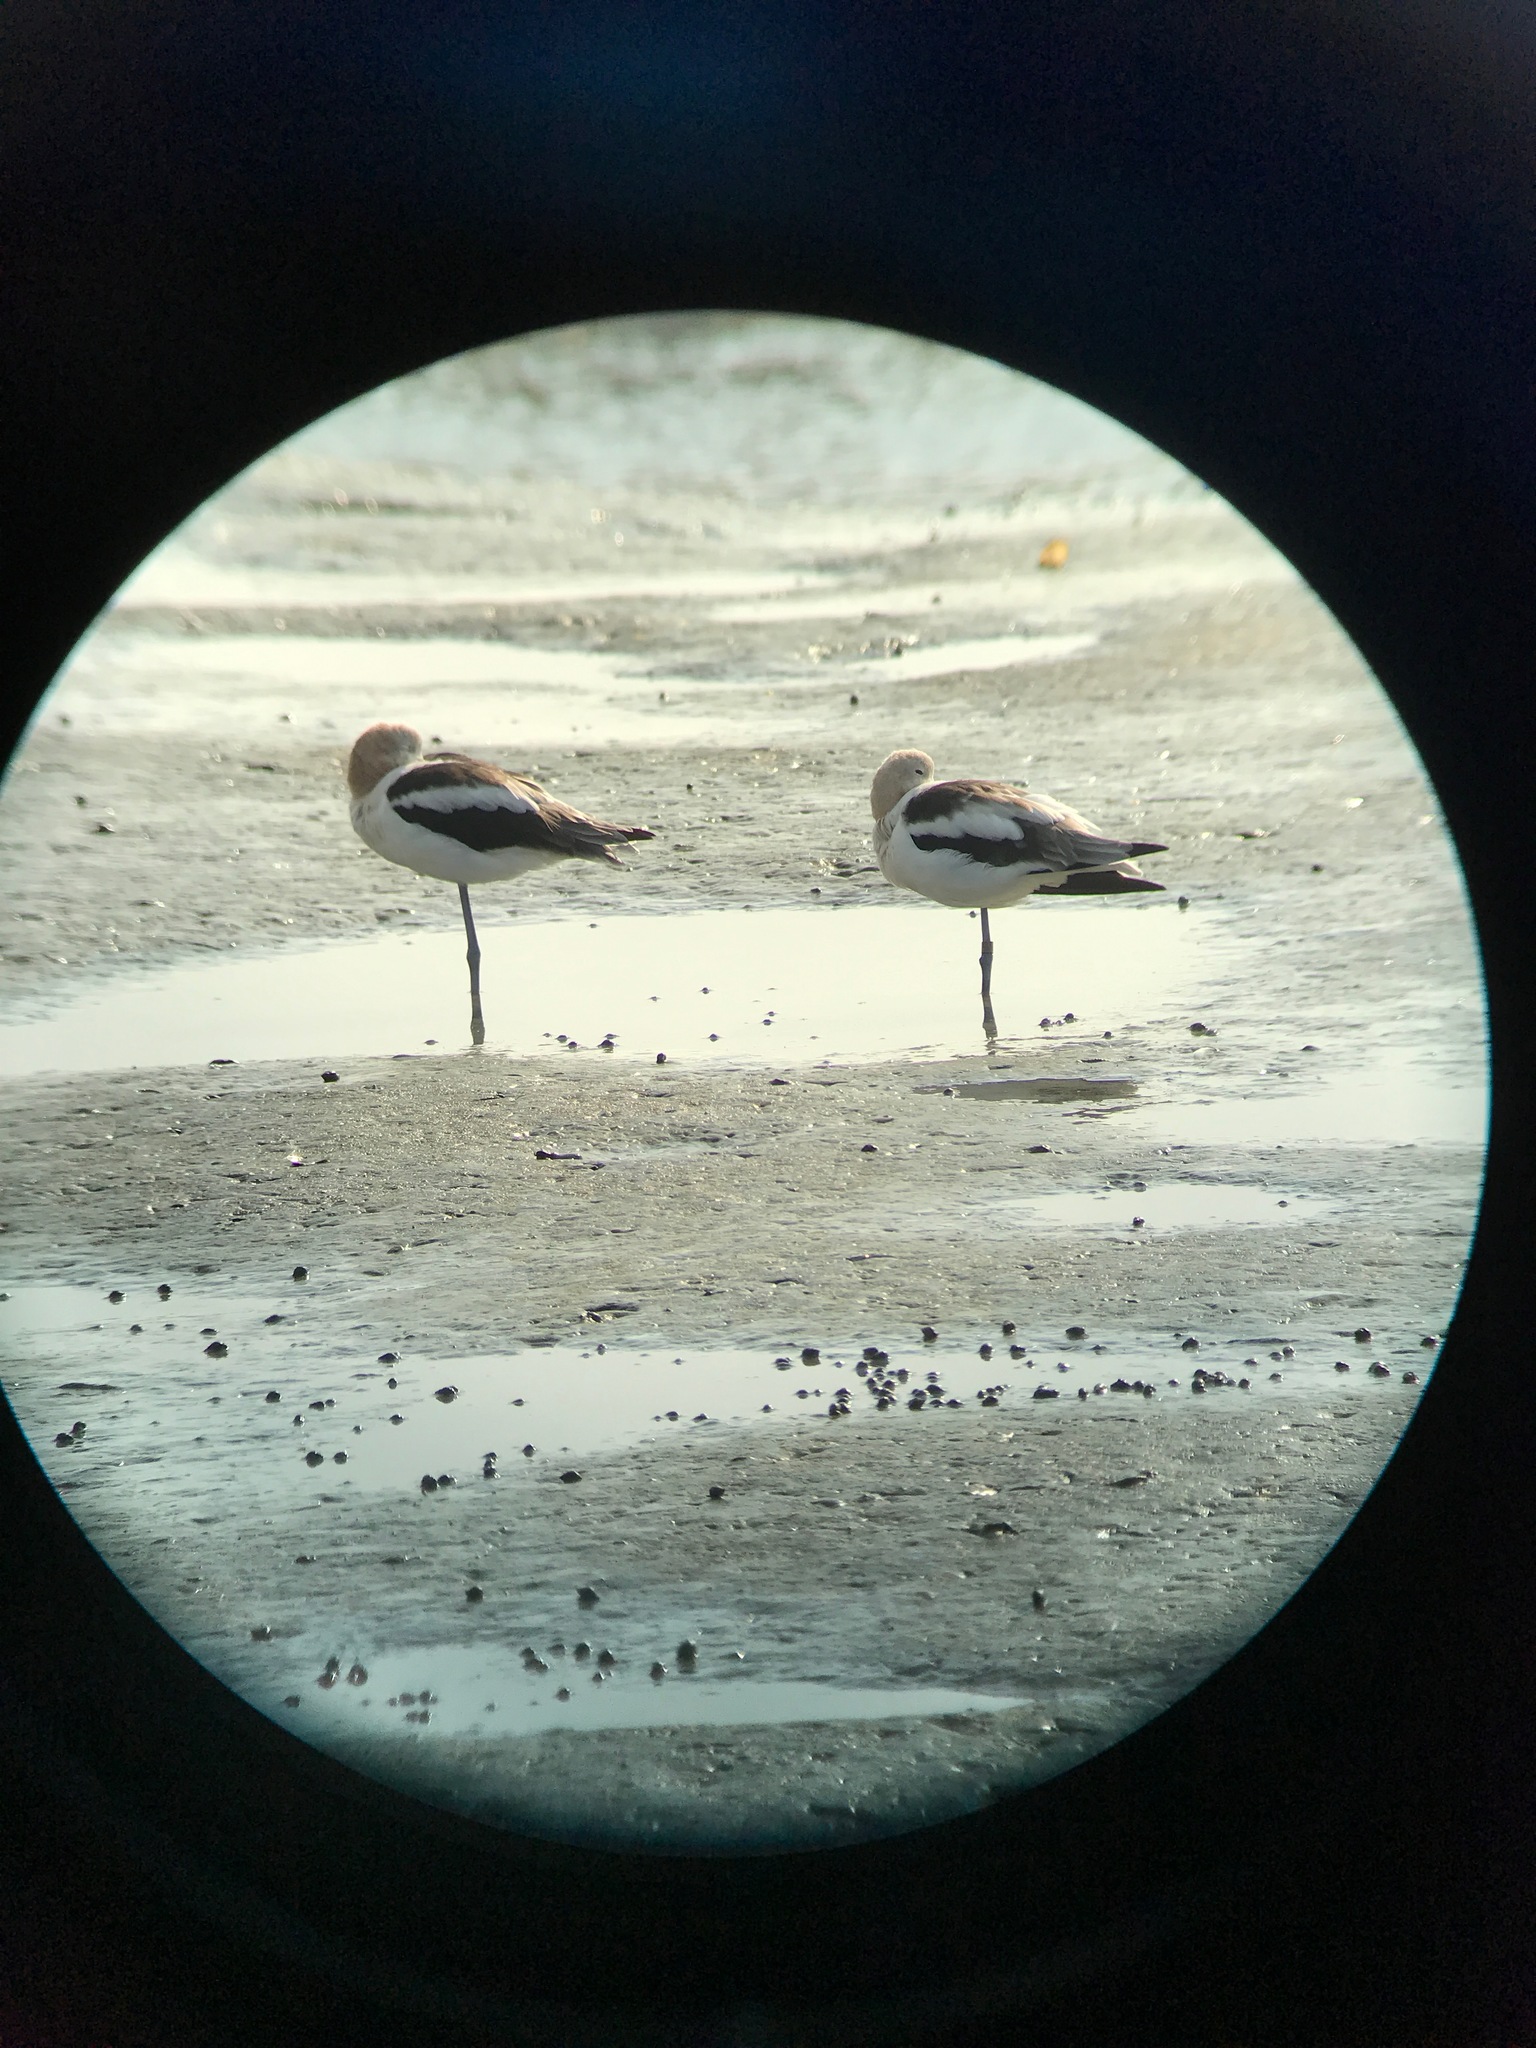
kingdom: Animalia
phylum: Chordata
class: Aves
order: Charadriiformes
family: Recurvirostridae
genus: Recurvirostra
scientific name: Recurvirostra americana
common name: American avocet
